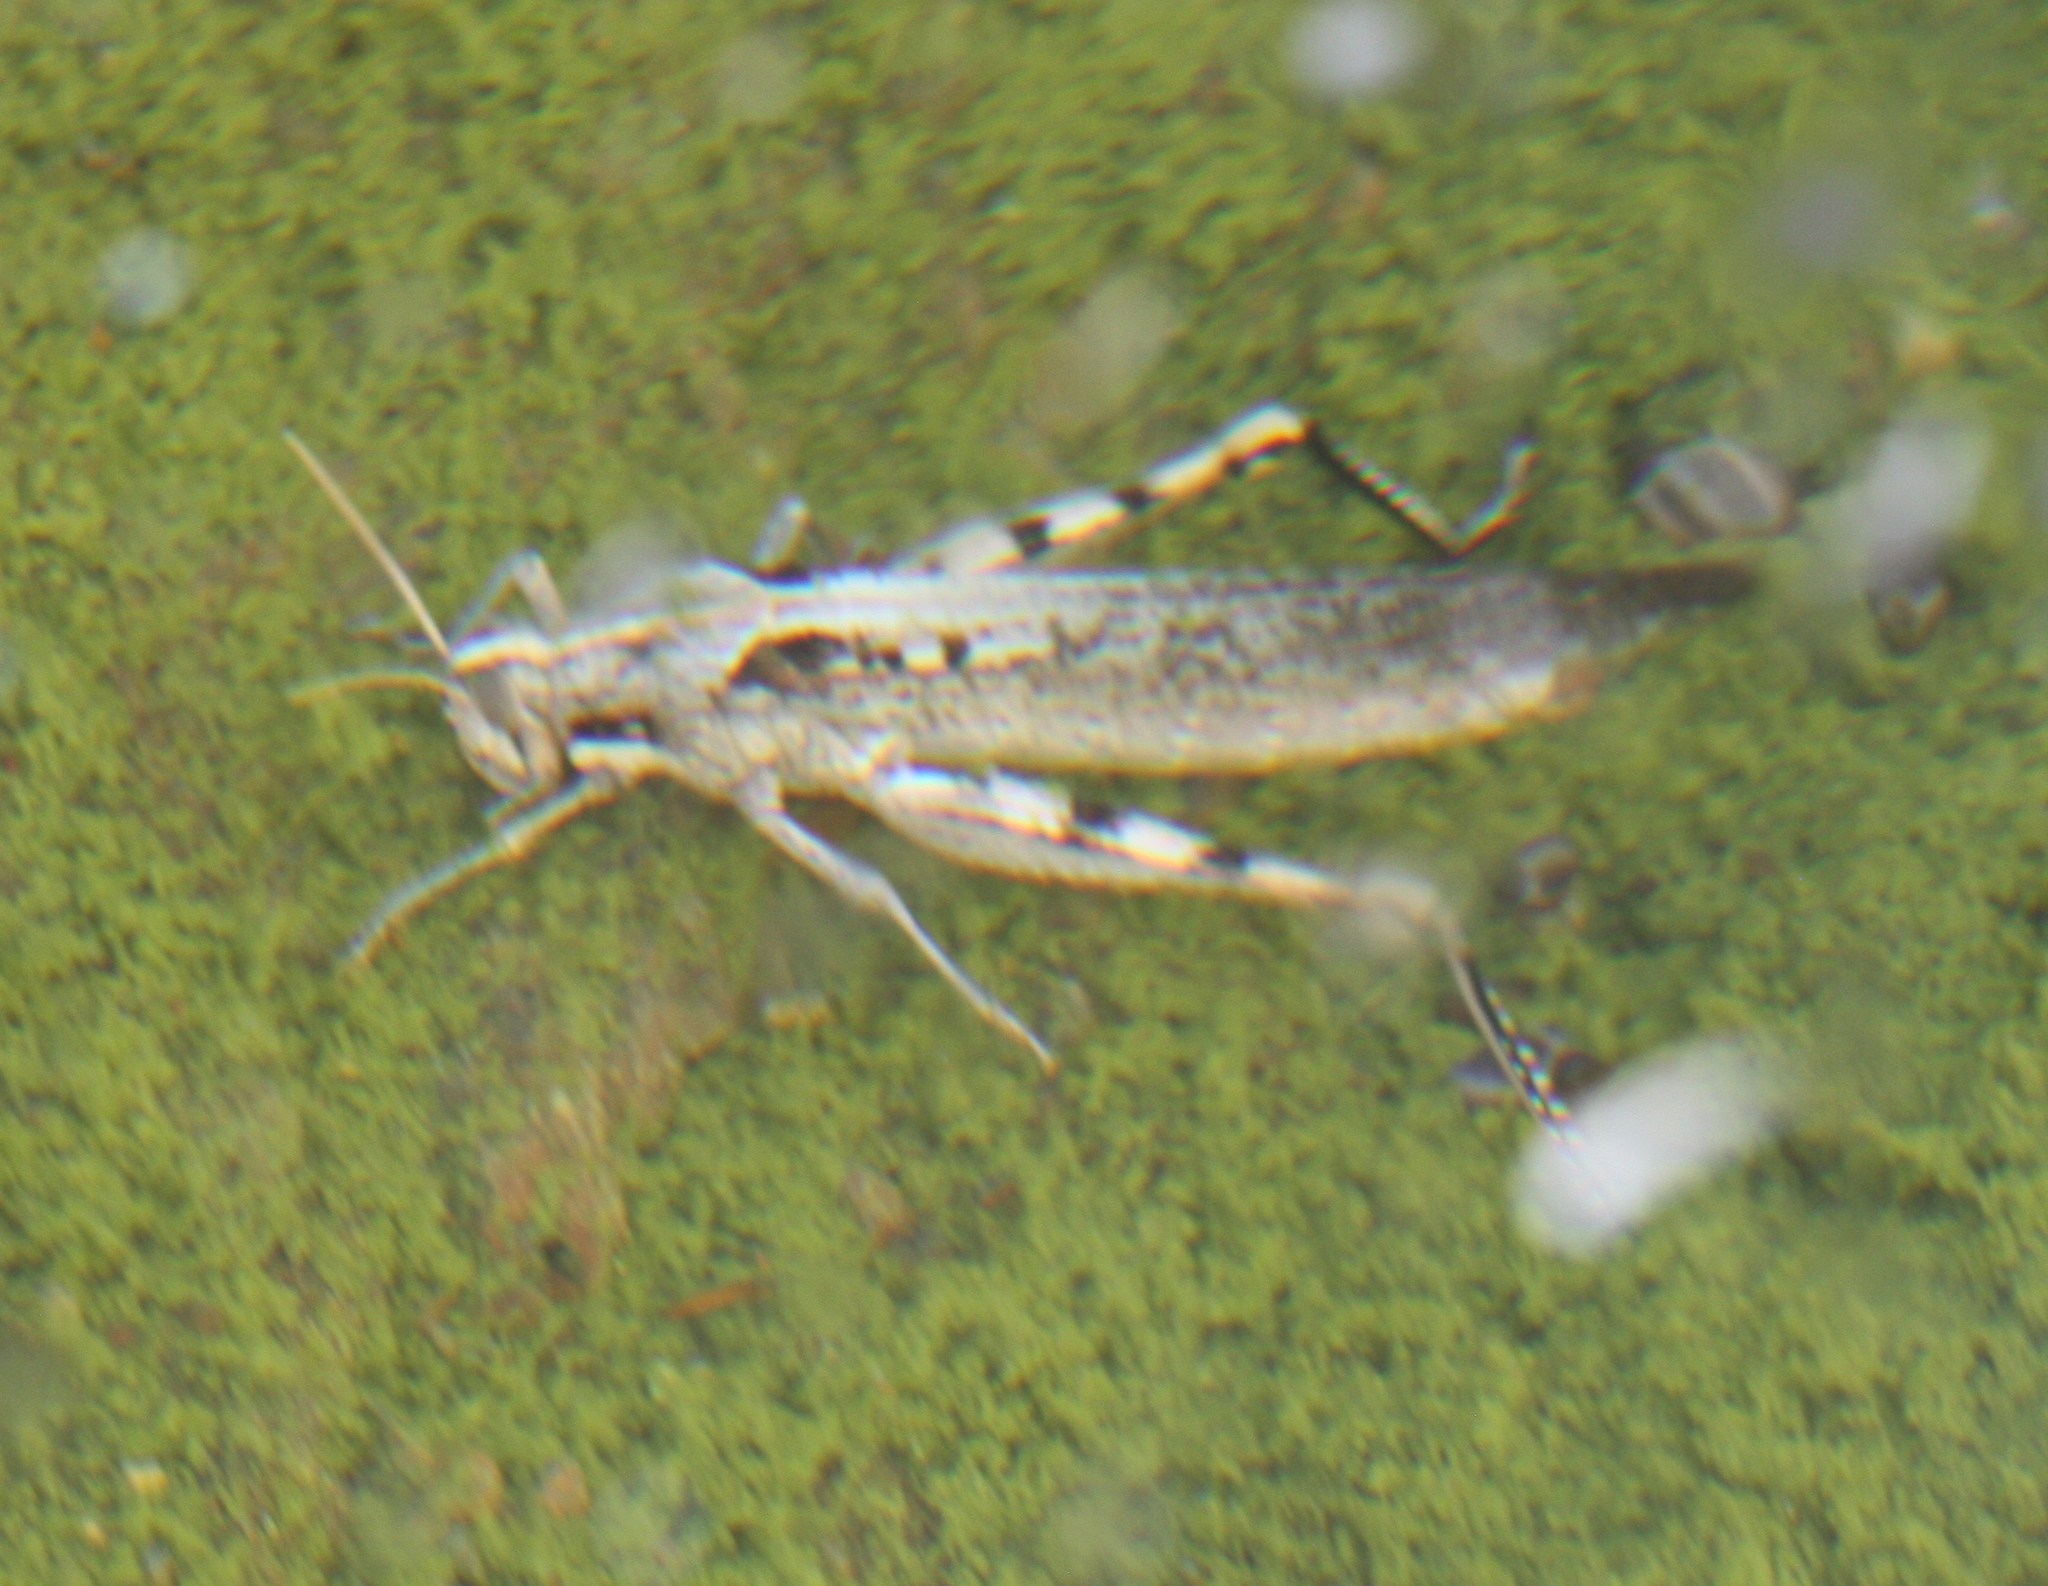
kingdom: Animalia
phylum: Arthropoda
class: Insecta
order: Orthoptera
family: Acrididae
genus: Schistocerca
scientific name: Schistocerca nitens
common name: Vagrant grasshopper
